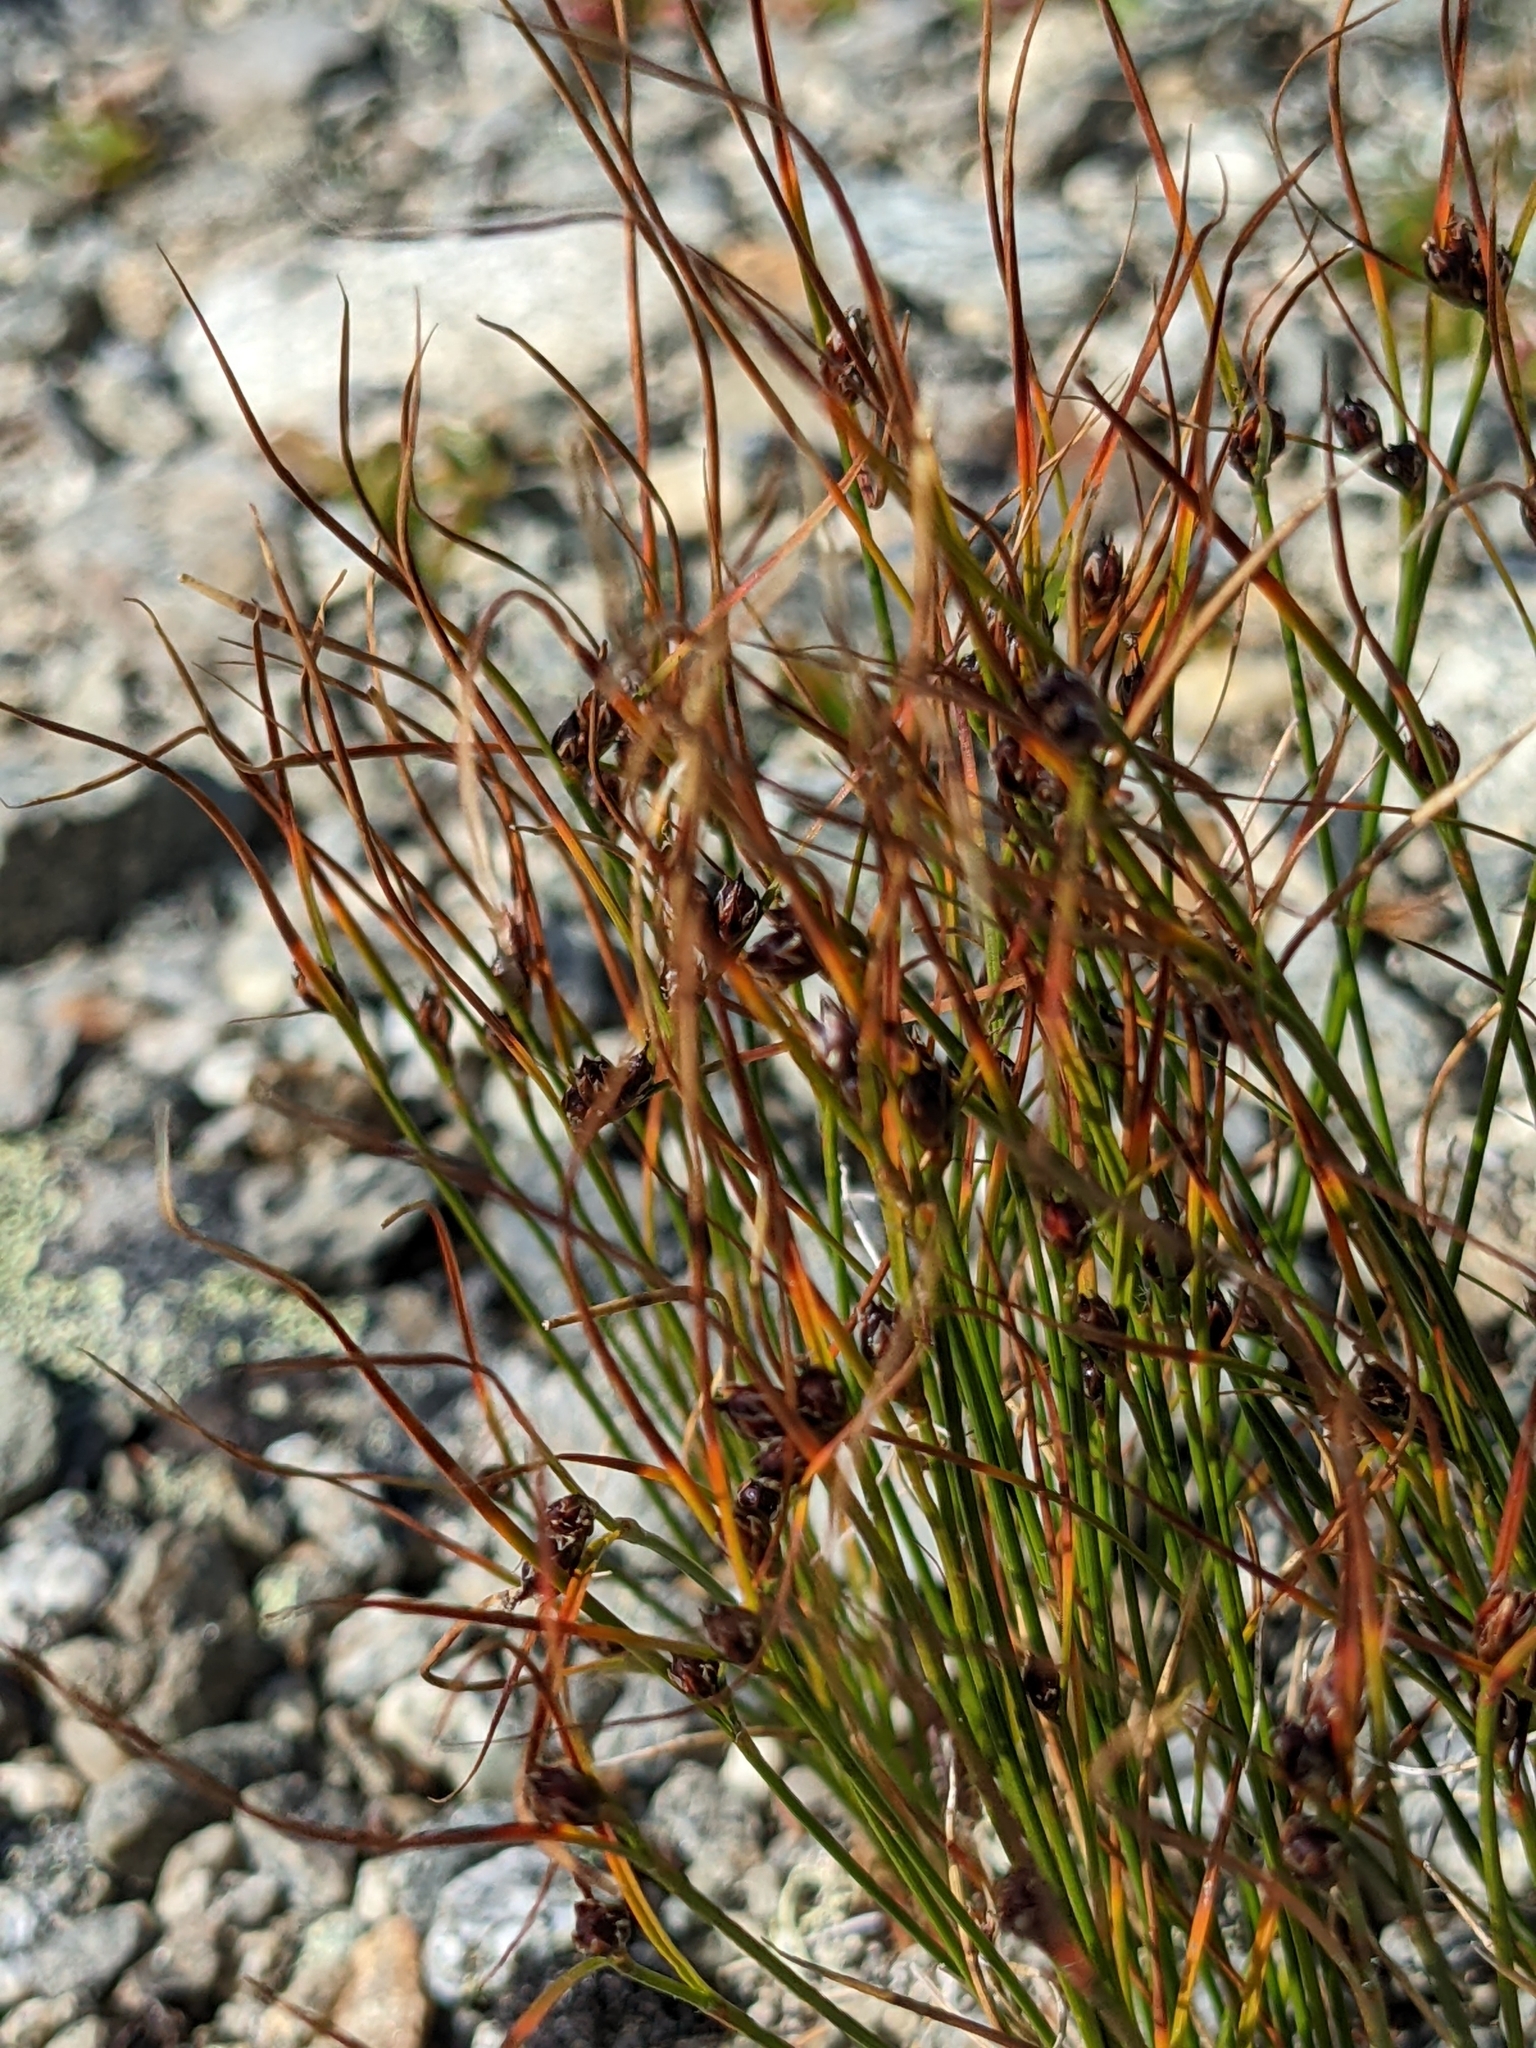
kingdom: Plantae
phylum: Tracheophyta
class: Liliopsida
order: Poales
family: Juncaceae
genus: Oreojuncus
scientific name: Oreojuncus trifidus
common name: Highland rush
